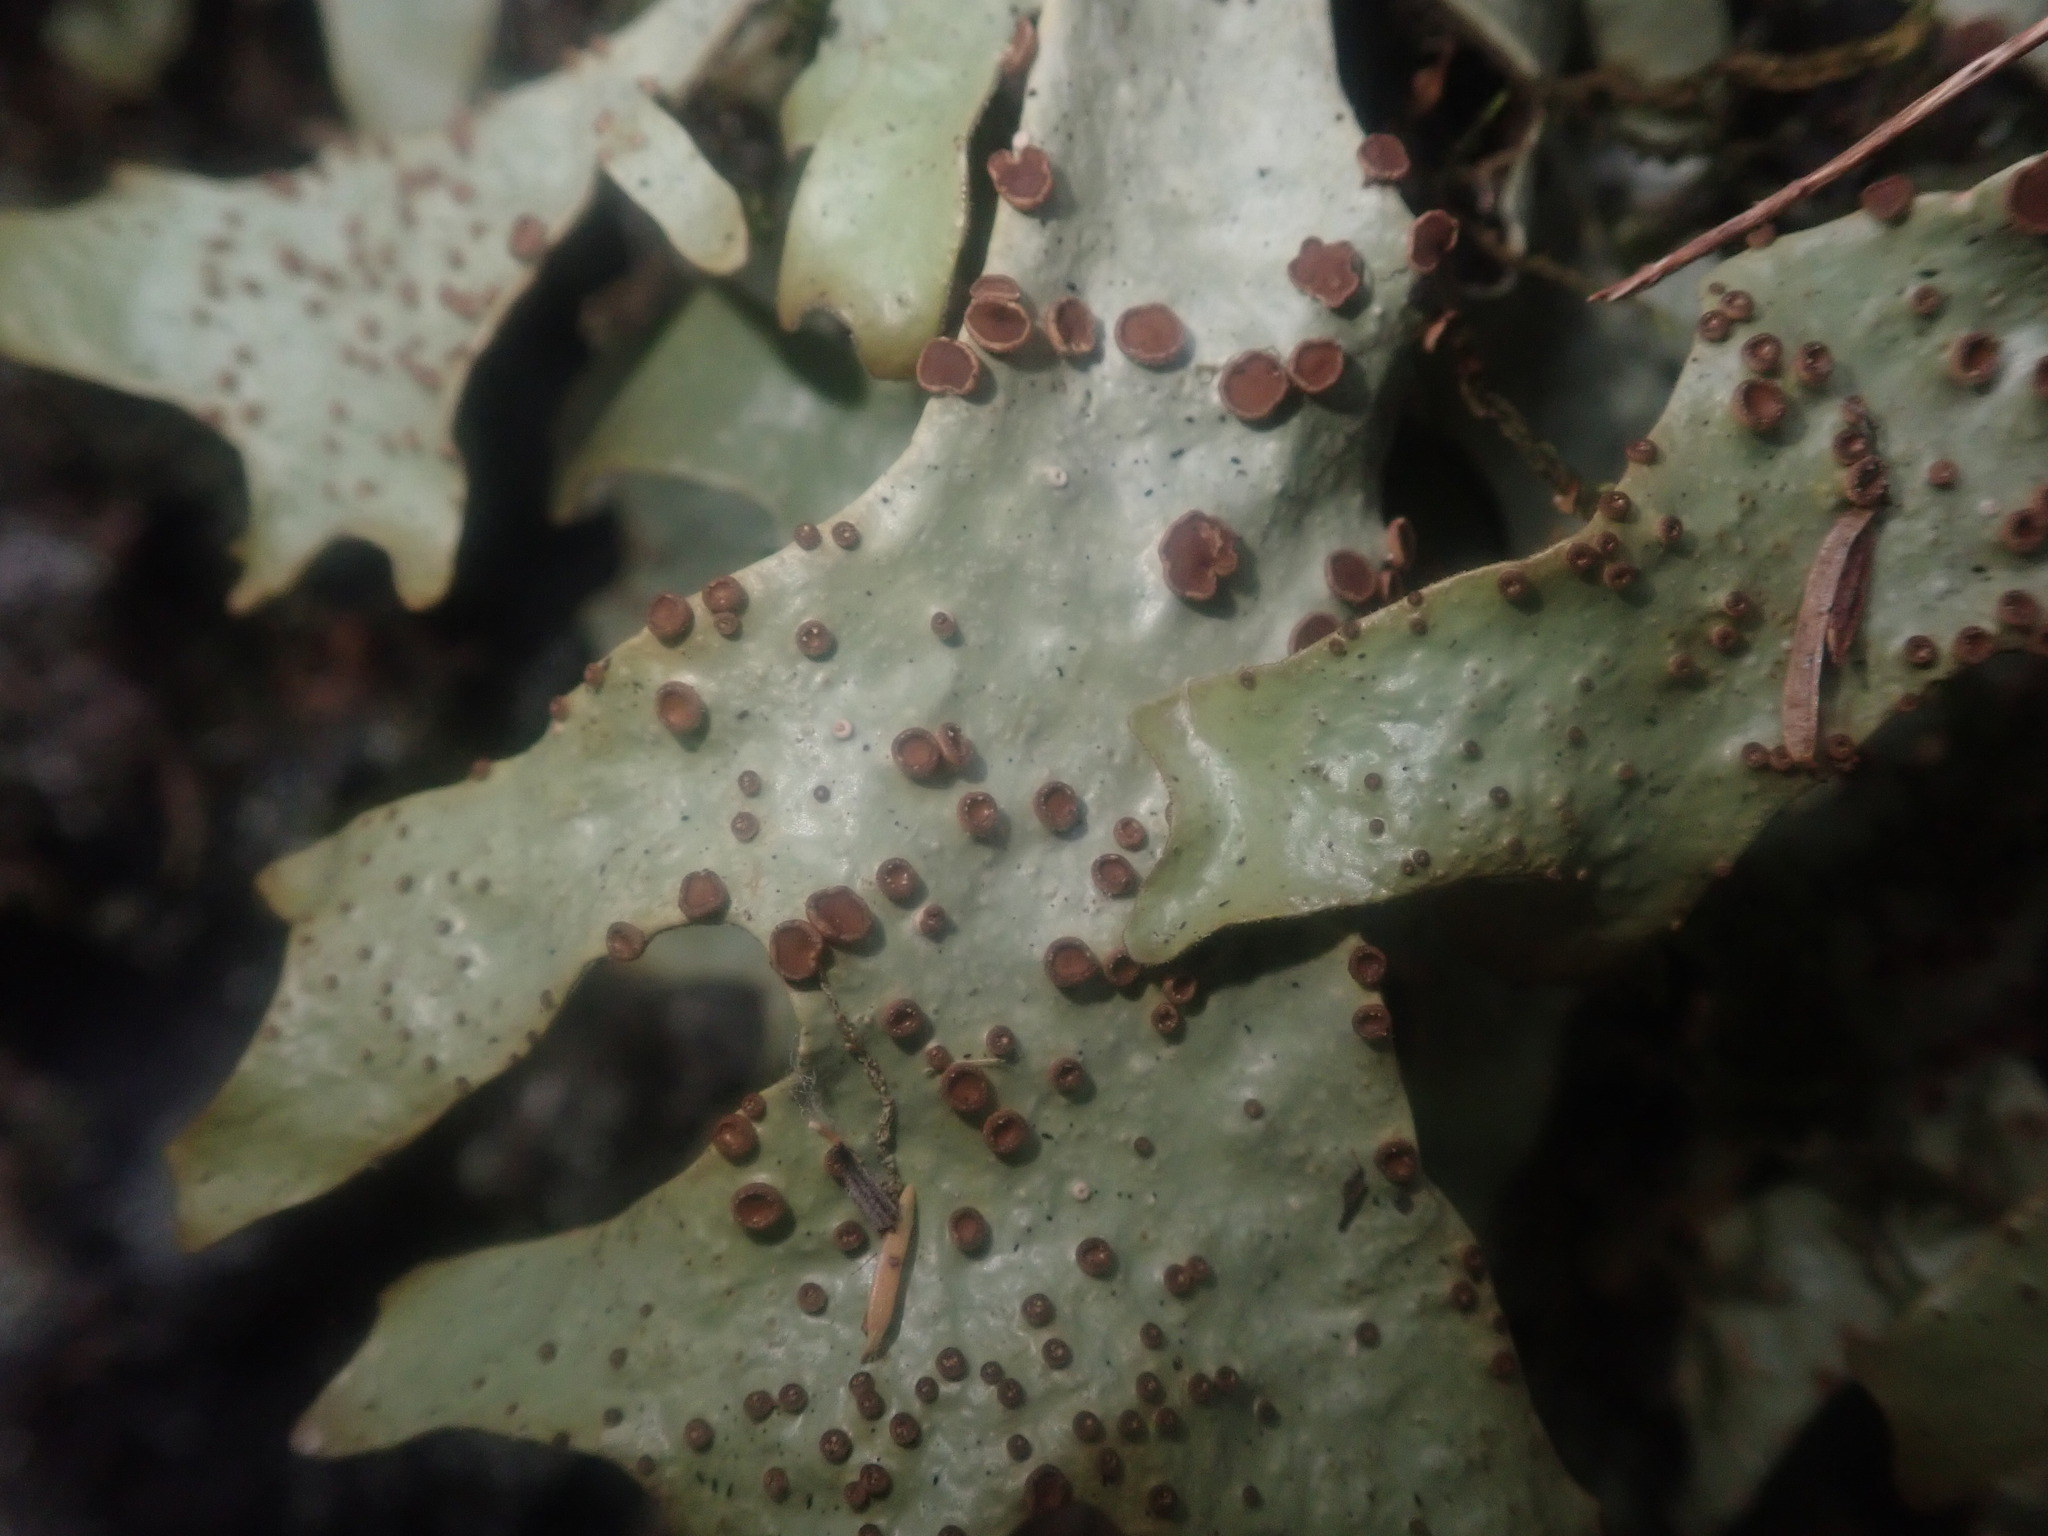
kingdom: Fungi
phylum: Ascomycota
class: Lecanoromycetes
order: Peltigerales
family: Lobariaceae
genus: Sticta
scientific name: Sticta canariensis
